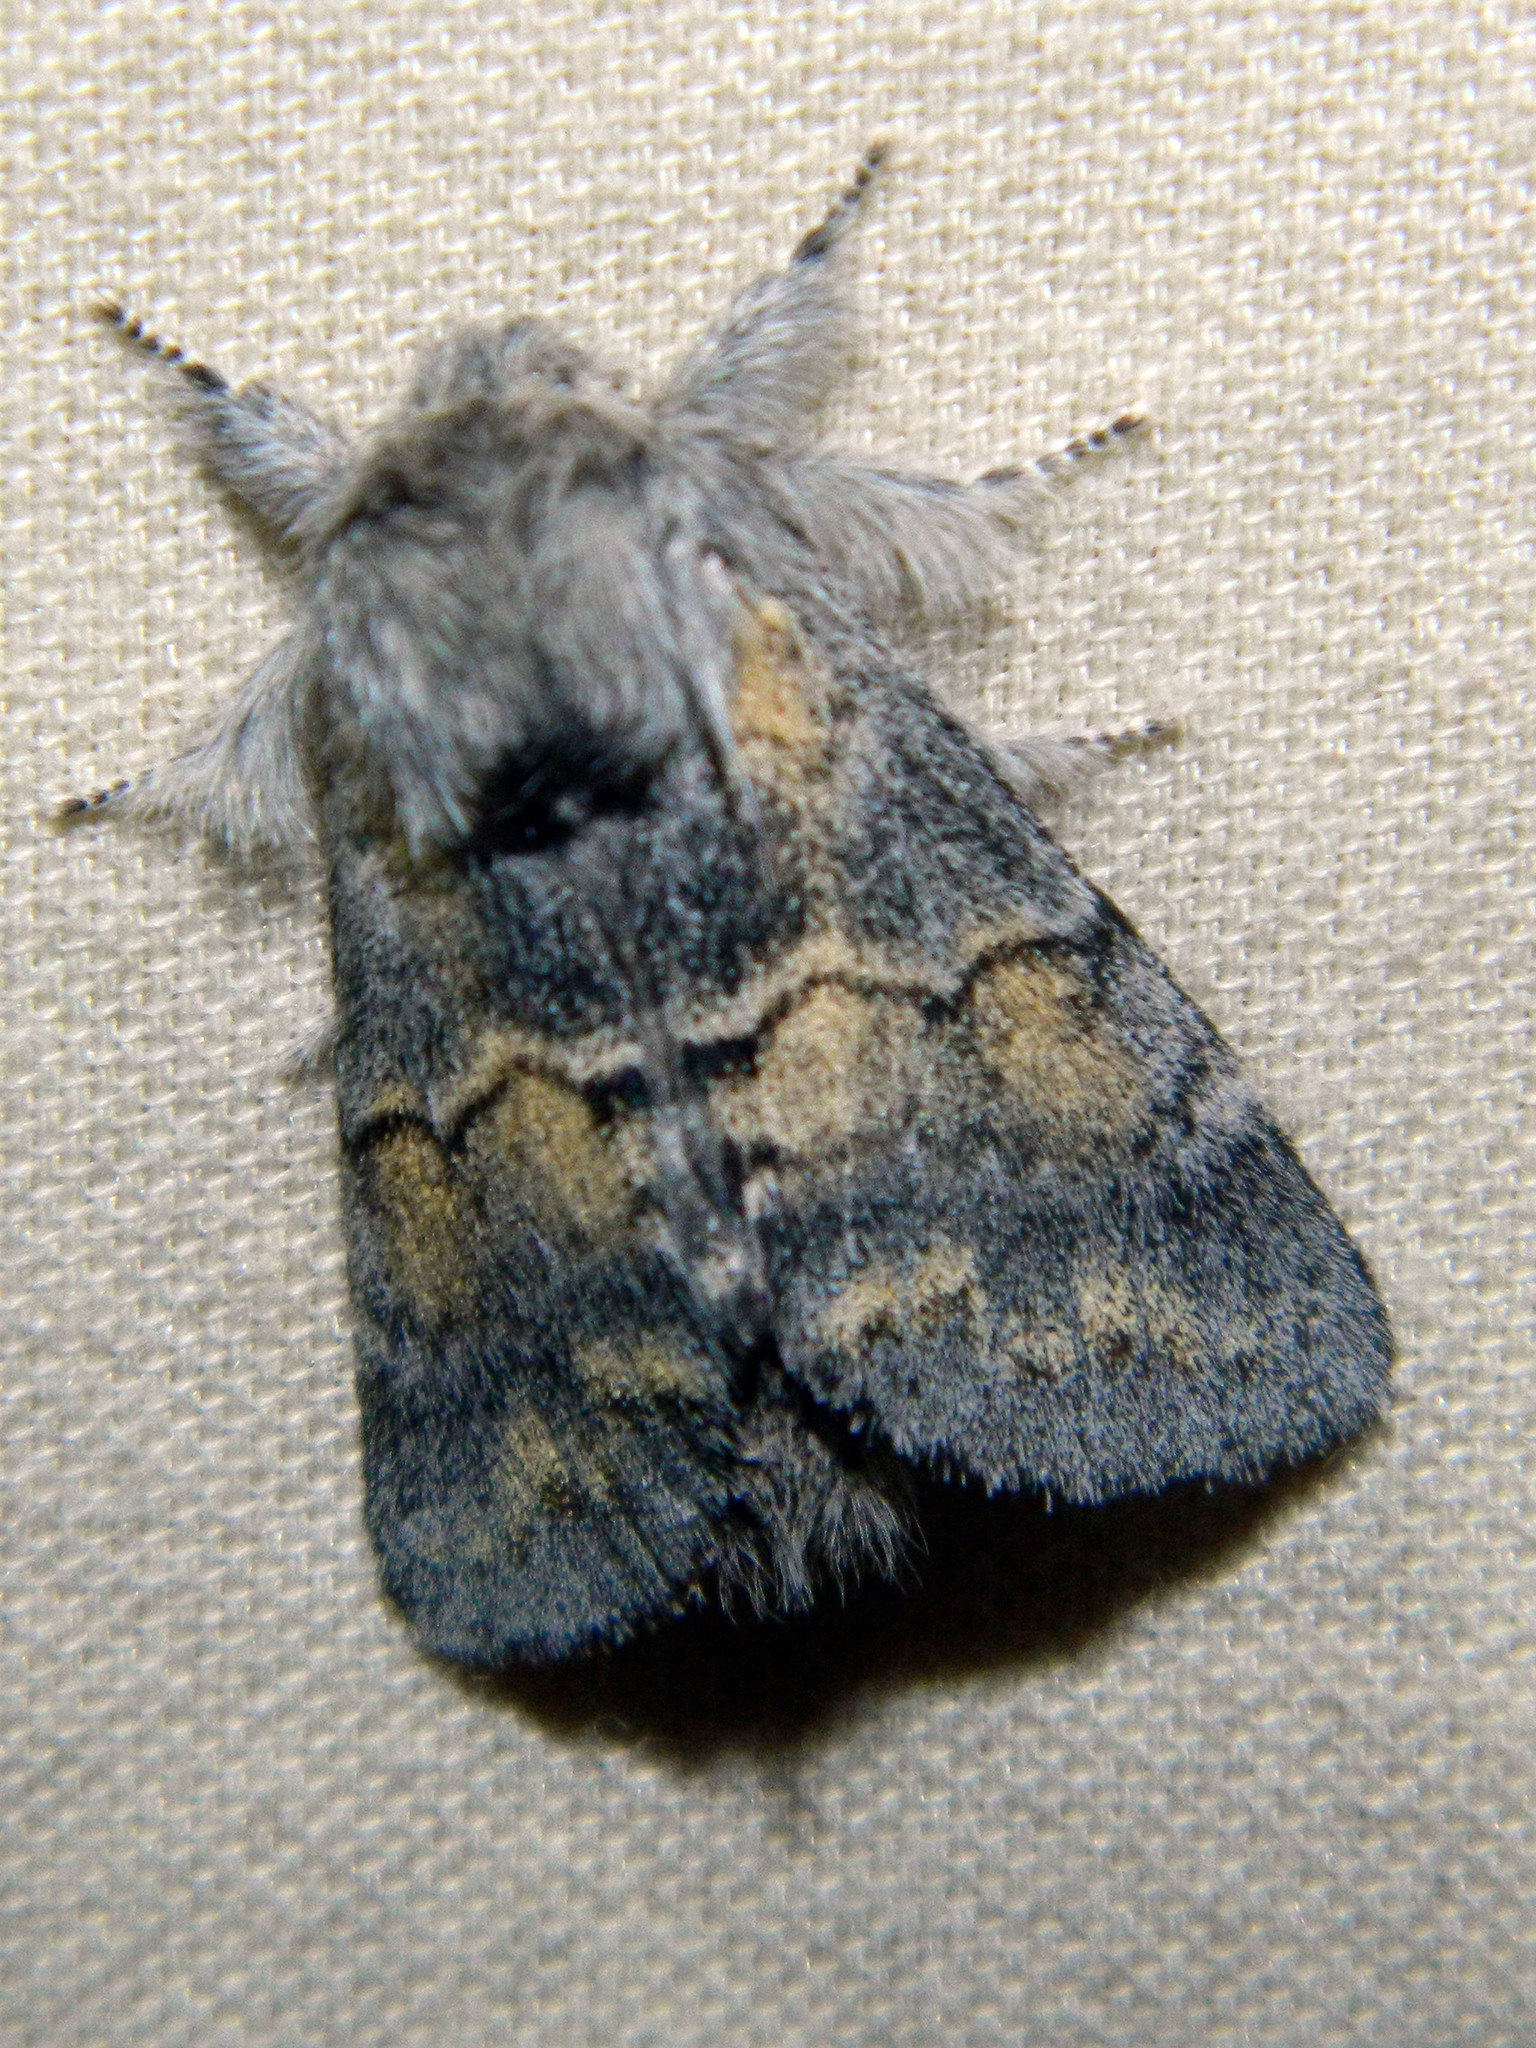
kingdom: Animalia
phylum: Arthropoda
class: Insecta
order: Lepidoptera
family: Notodontidae
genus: Gluphisia
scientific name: Gluphisia lintneri
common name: Lintner's gluphisia moth
